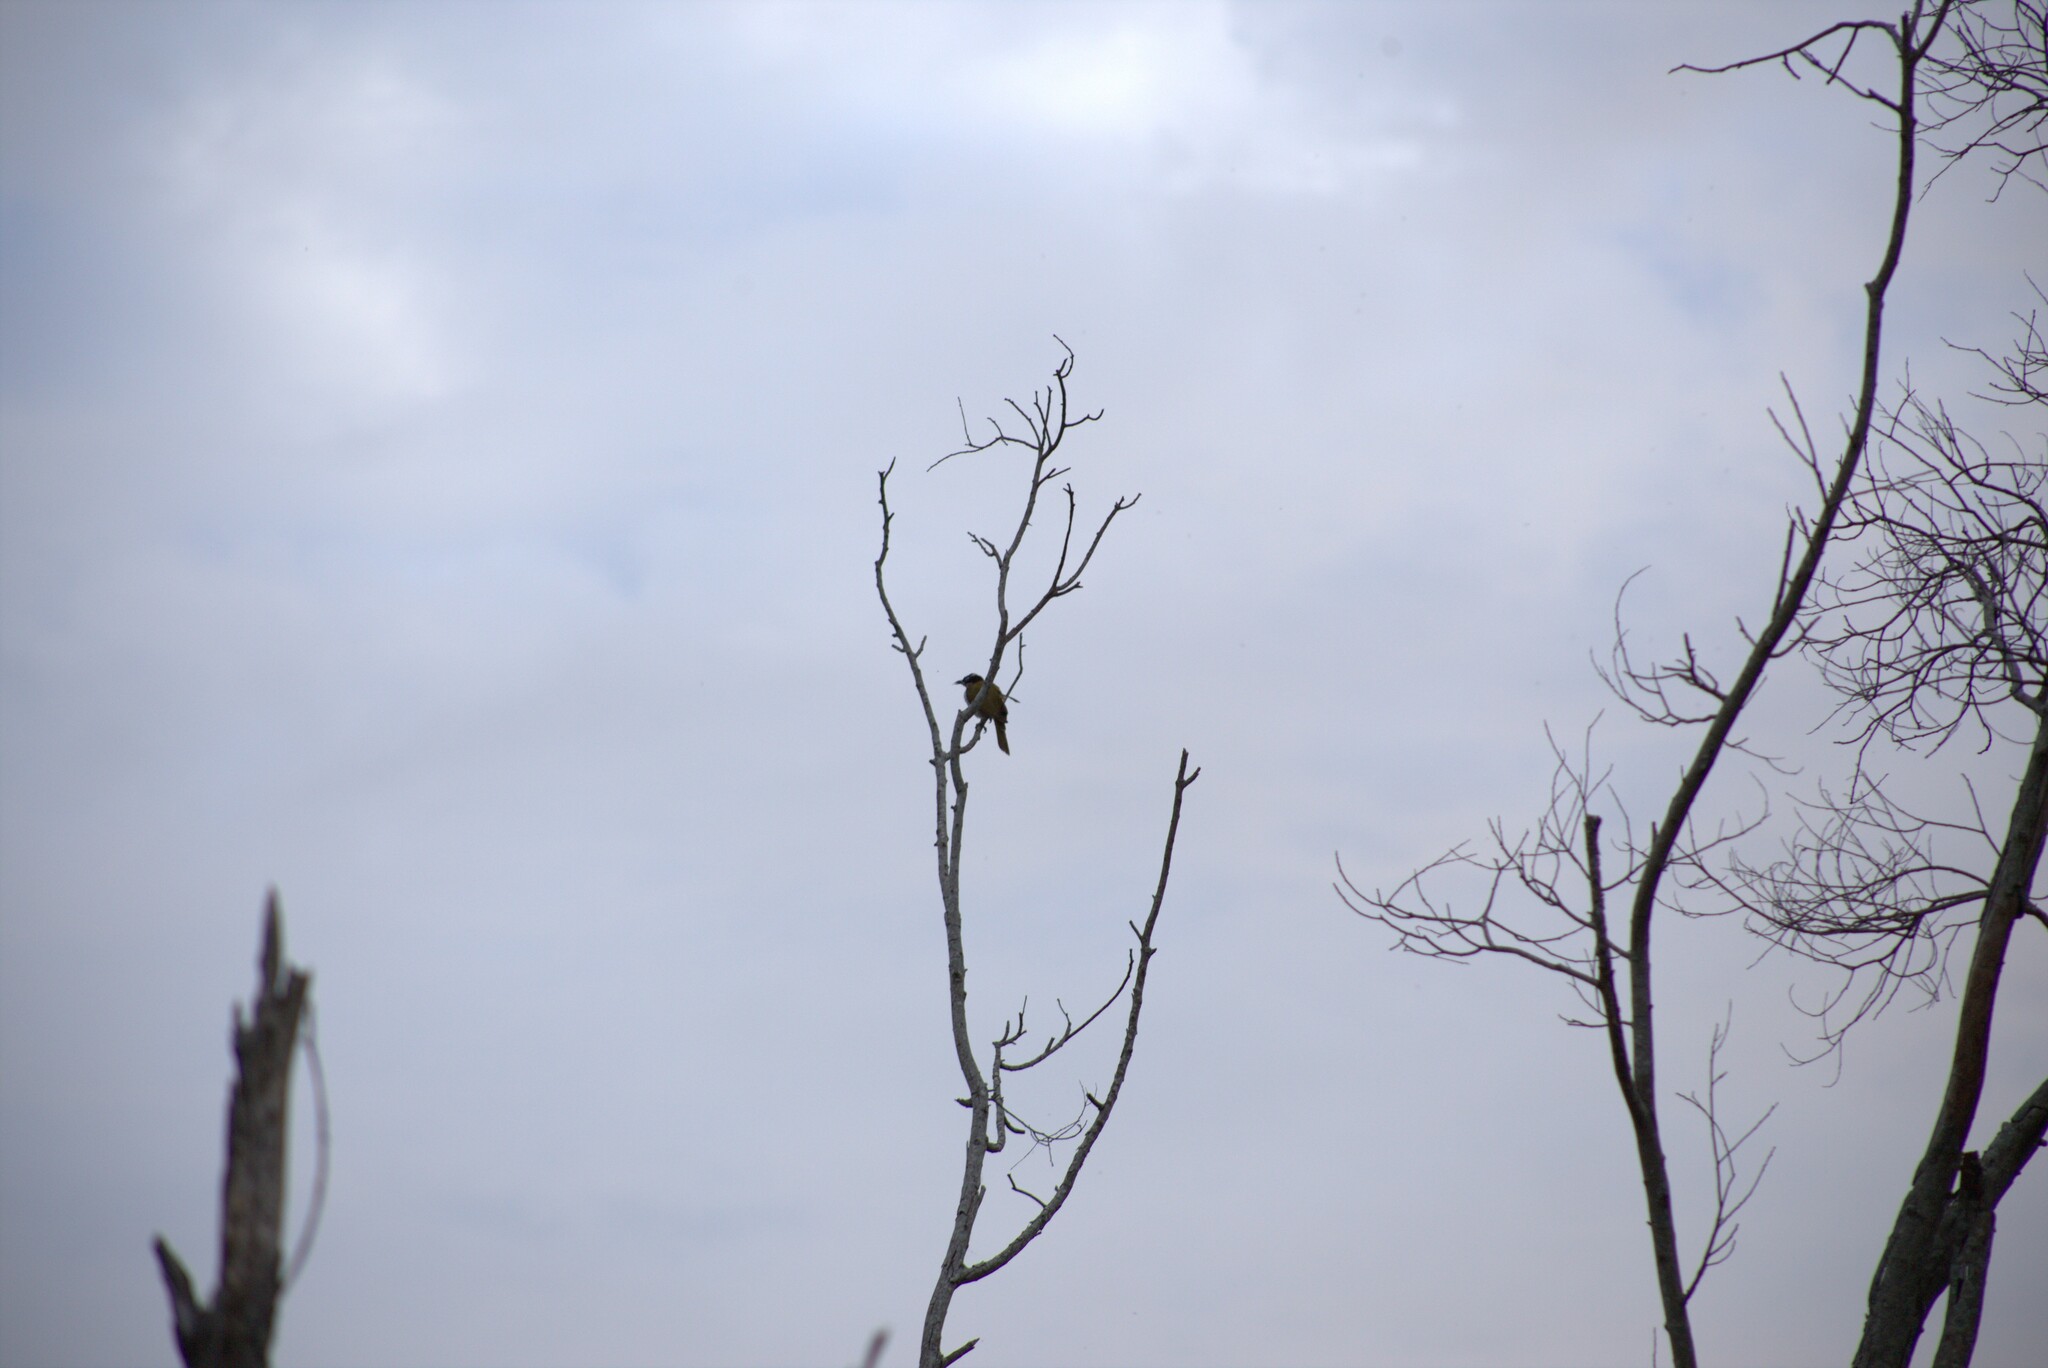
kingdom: Animalia
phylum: Chordata
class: Aves
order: Passeriformes
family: Meliphagidae
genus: Entomyzon
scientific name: Entomyzon cyanotis
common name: Blue-faced honeyeater
